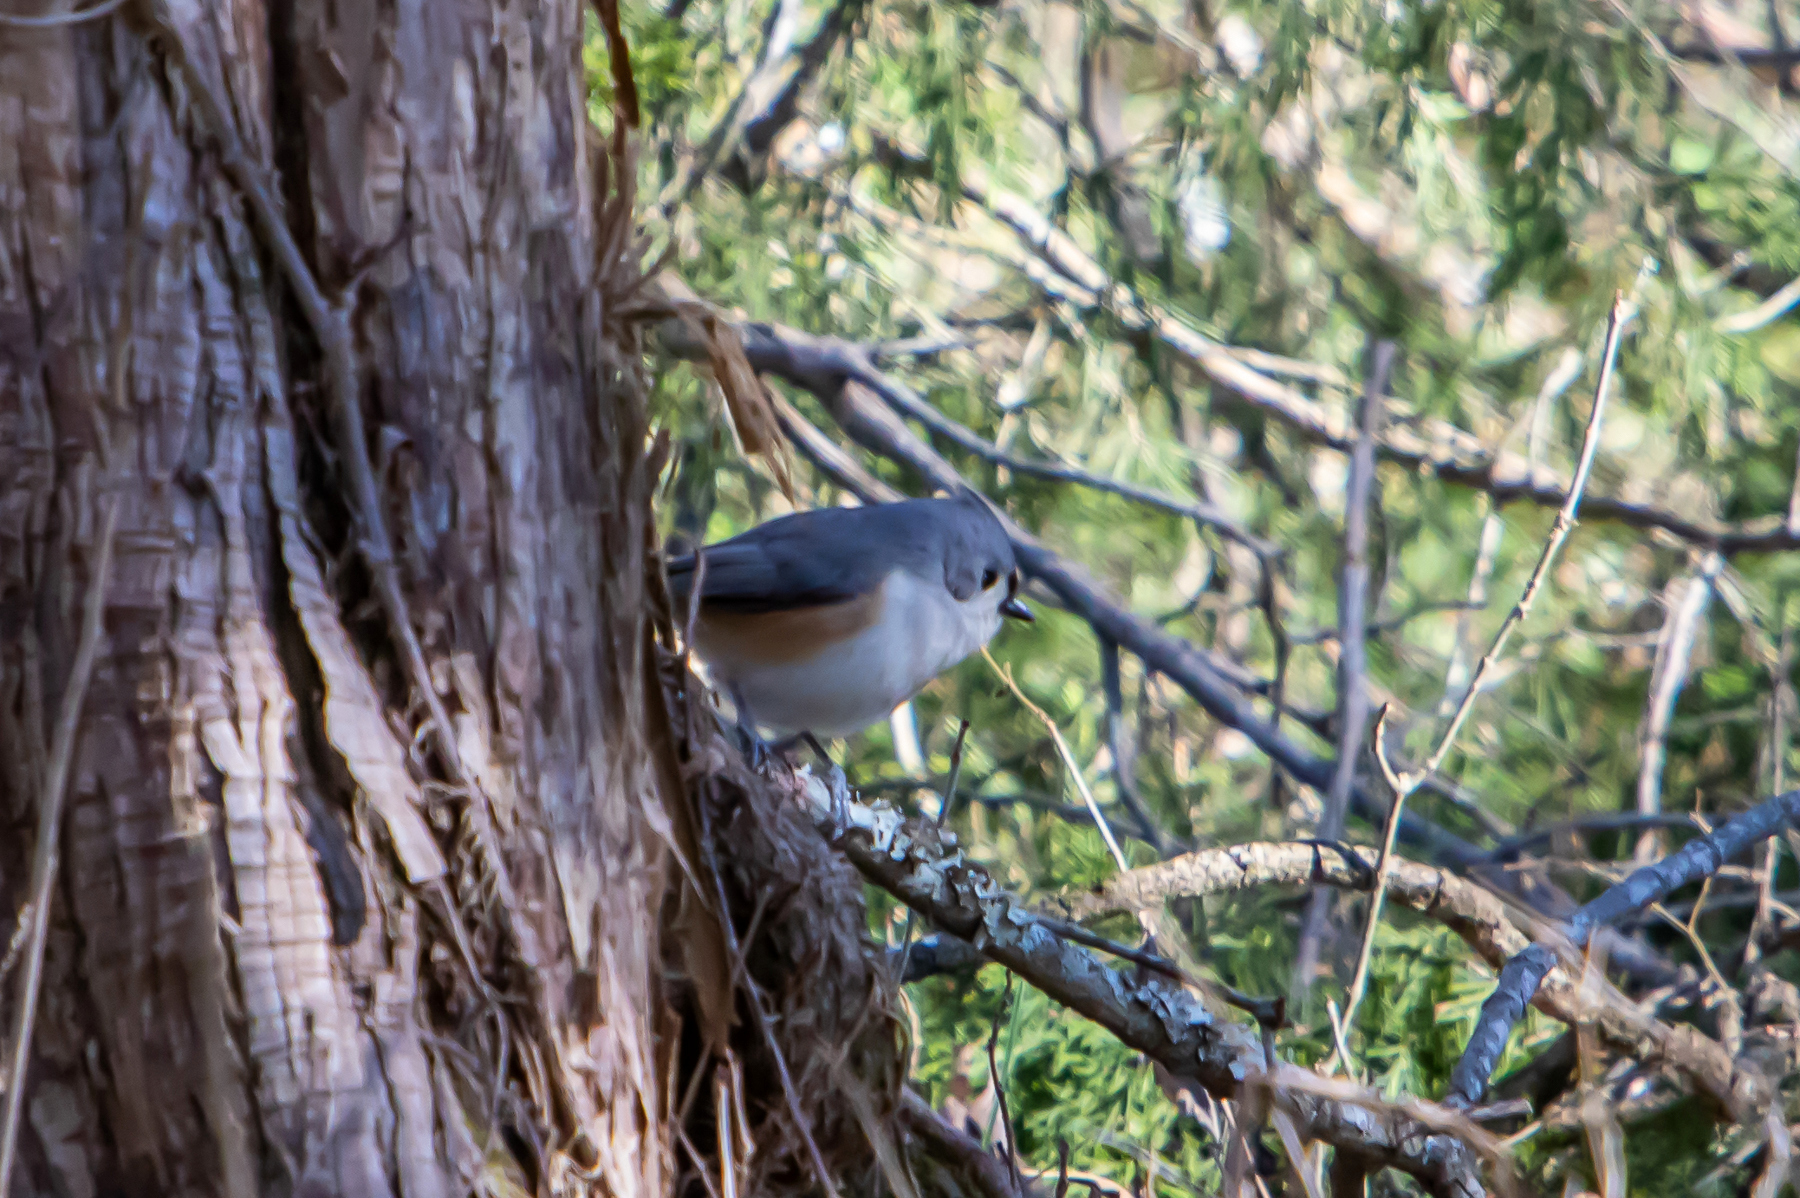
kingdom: Animalia
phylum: Chordata
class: Aves
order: Passeriformes
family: Paridae
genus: Baeolophus
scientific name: Baeolophus bicolor
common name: Tufted titmouse
